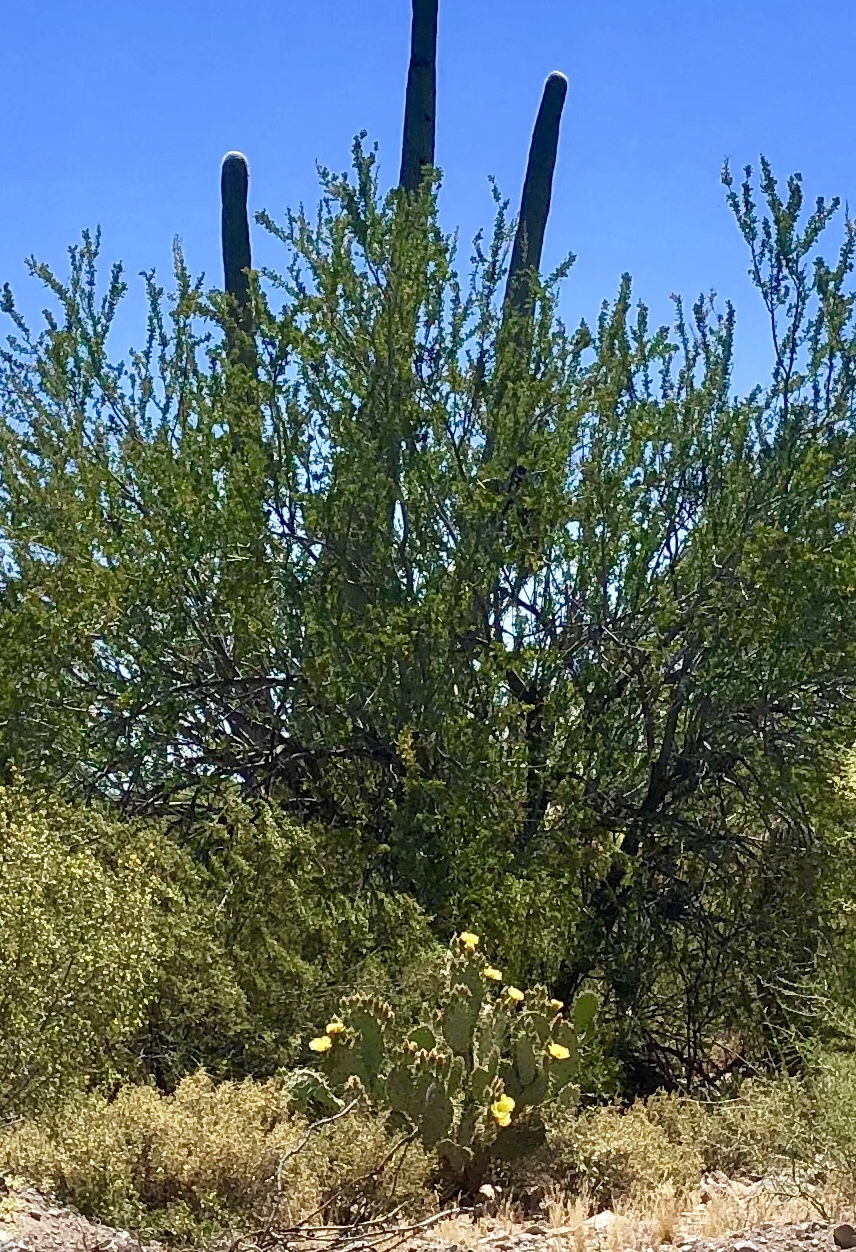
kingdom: Plantae
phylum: Tracheophyta
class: Magnoliopsida
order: Fabales
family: Fabaceae
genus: Olneya
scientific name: Olneya tesota
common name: Desert ironwood
